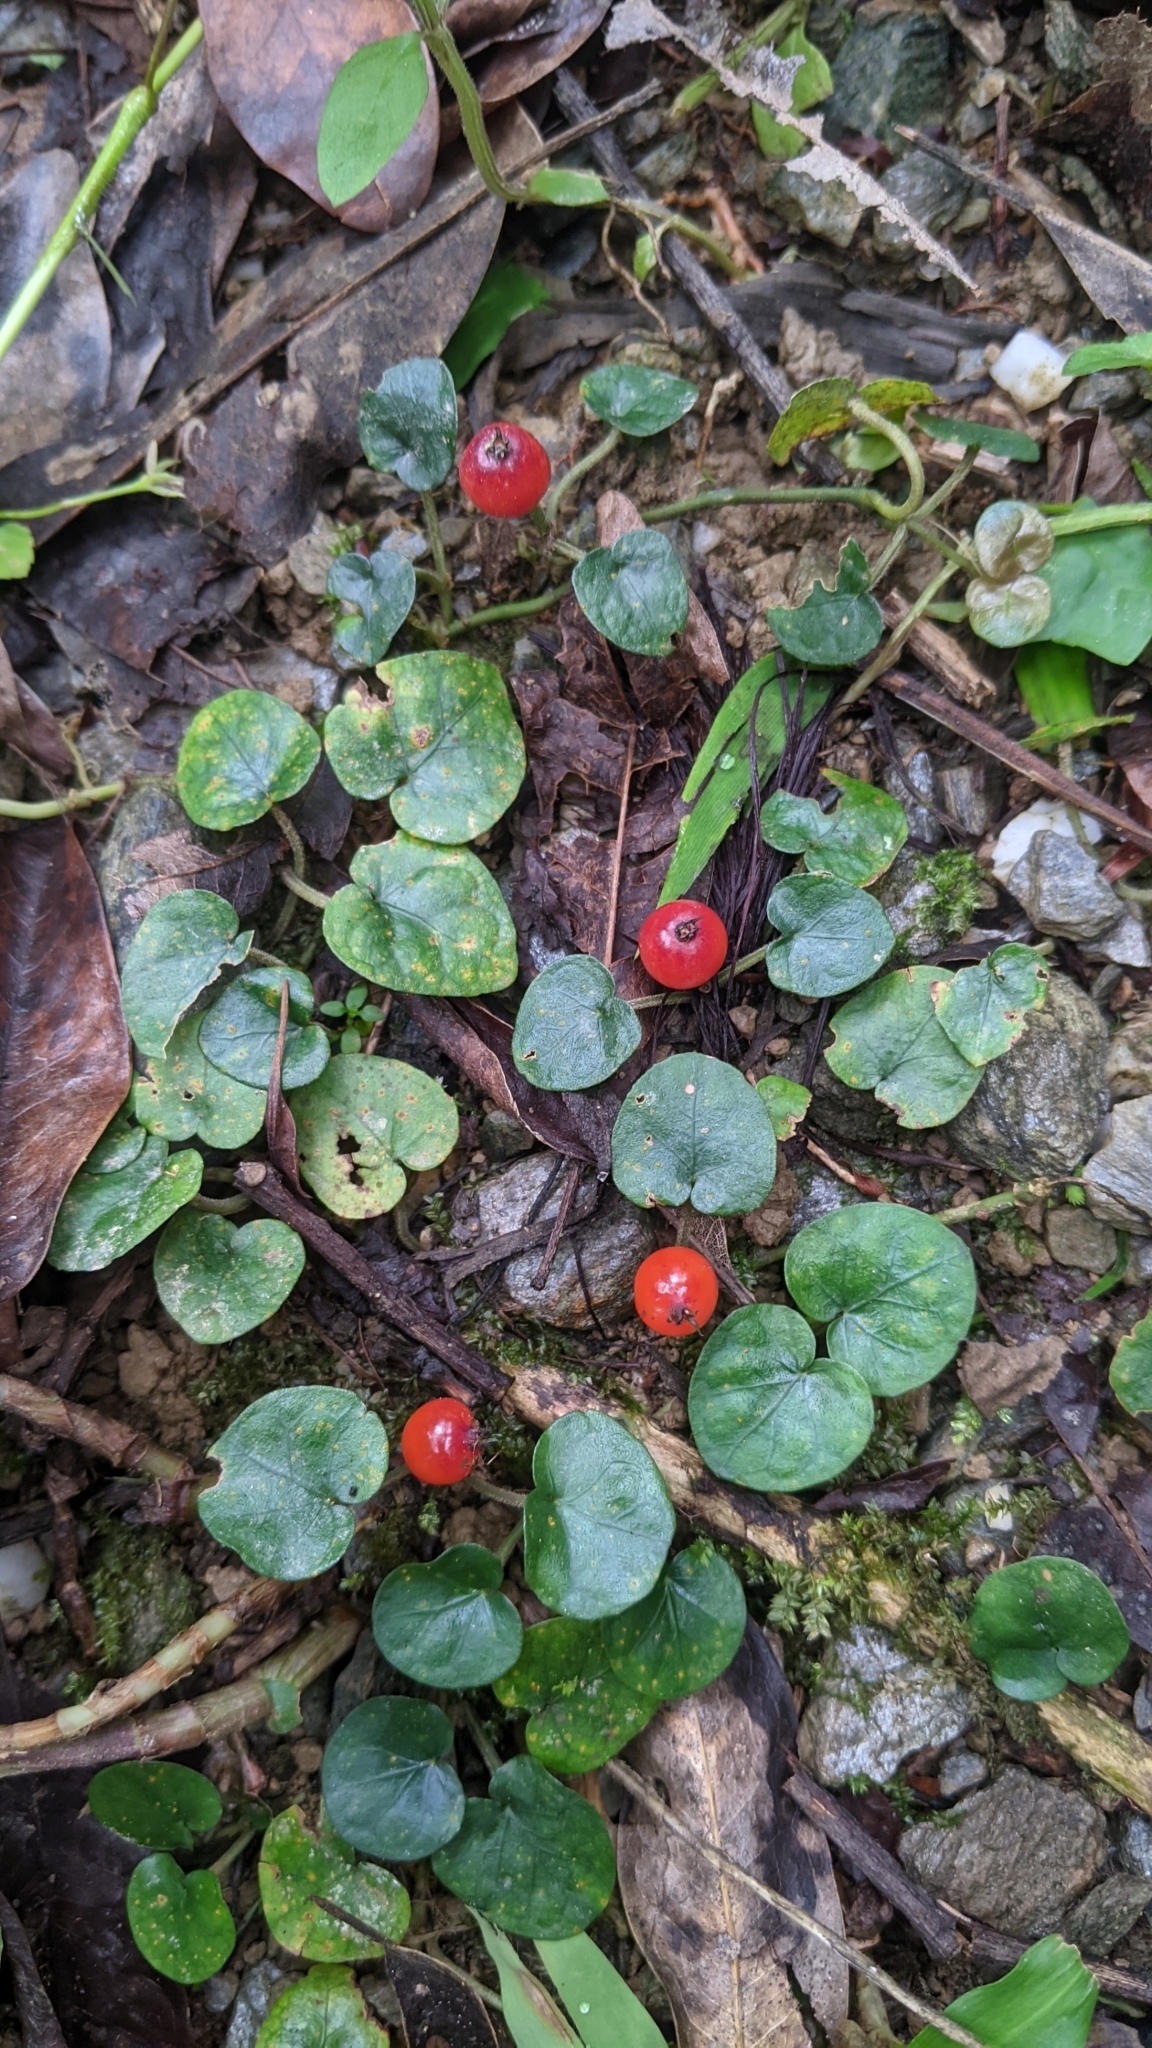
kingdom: Plantae
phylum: Tracheophyta
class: Magnoliopsida
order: Gentianales
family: Rubiaceae
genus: Geophila
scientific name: Geophila herbacea
